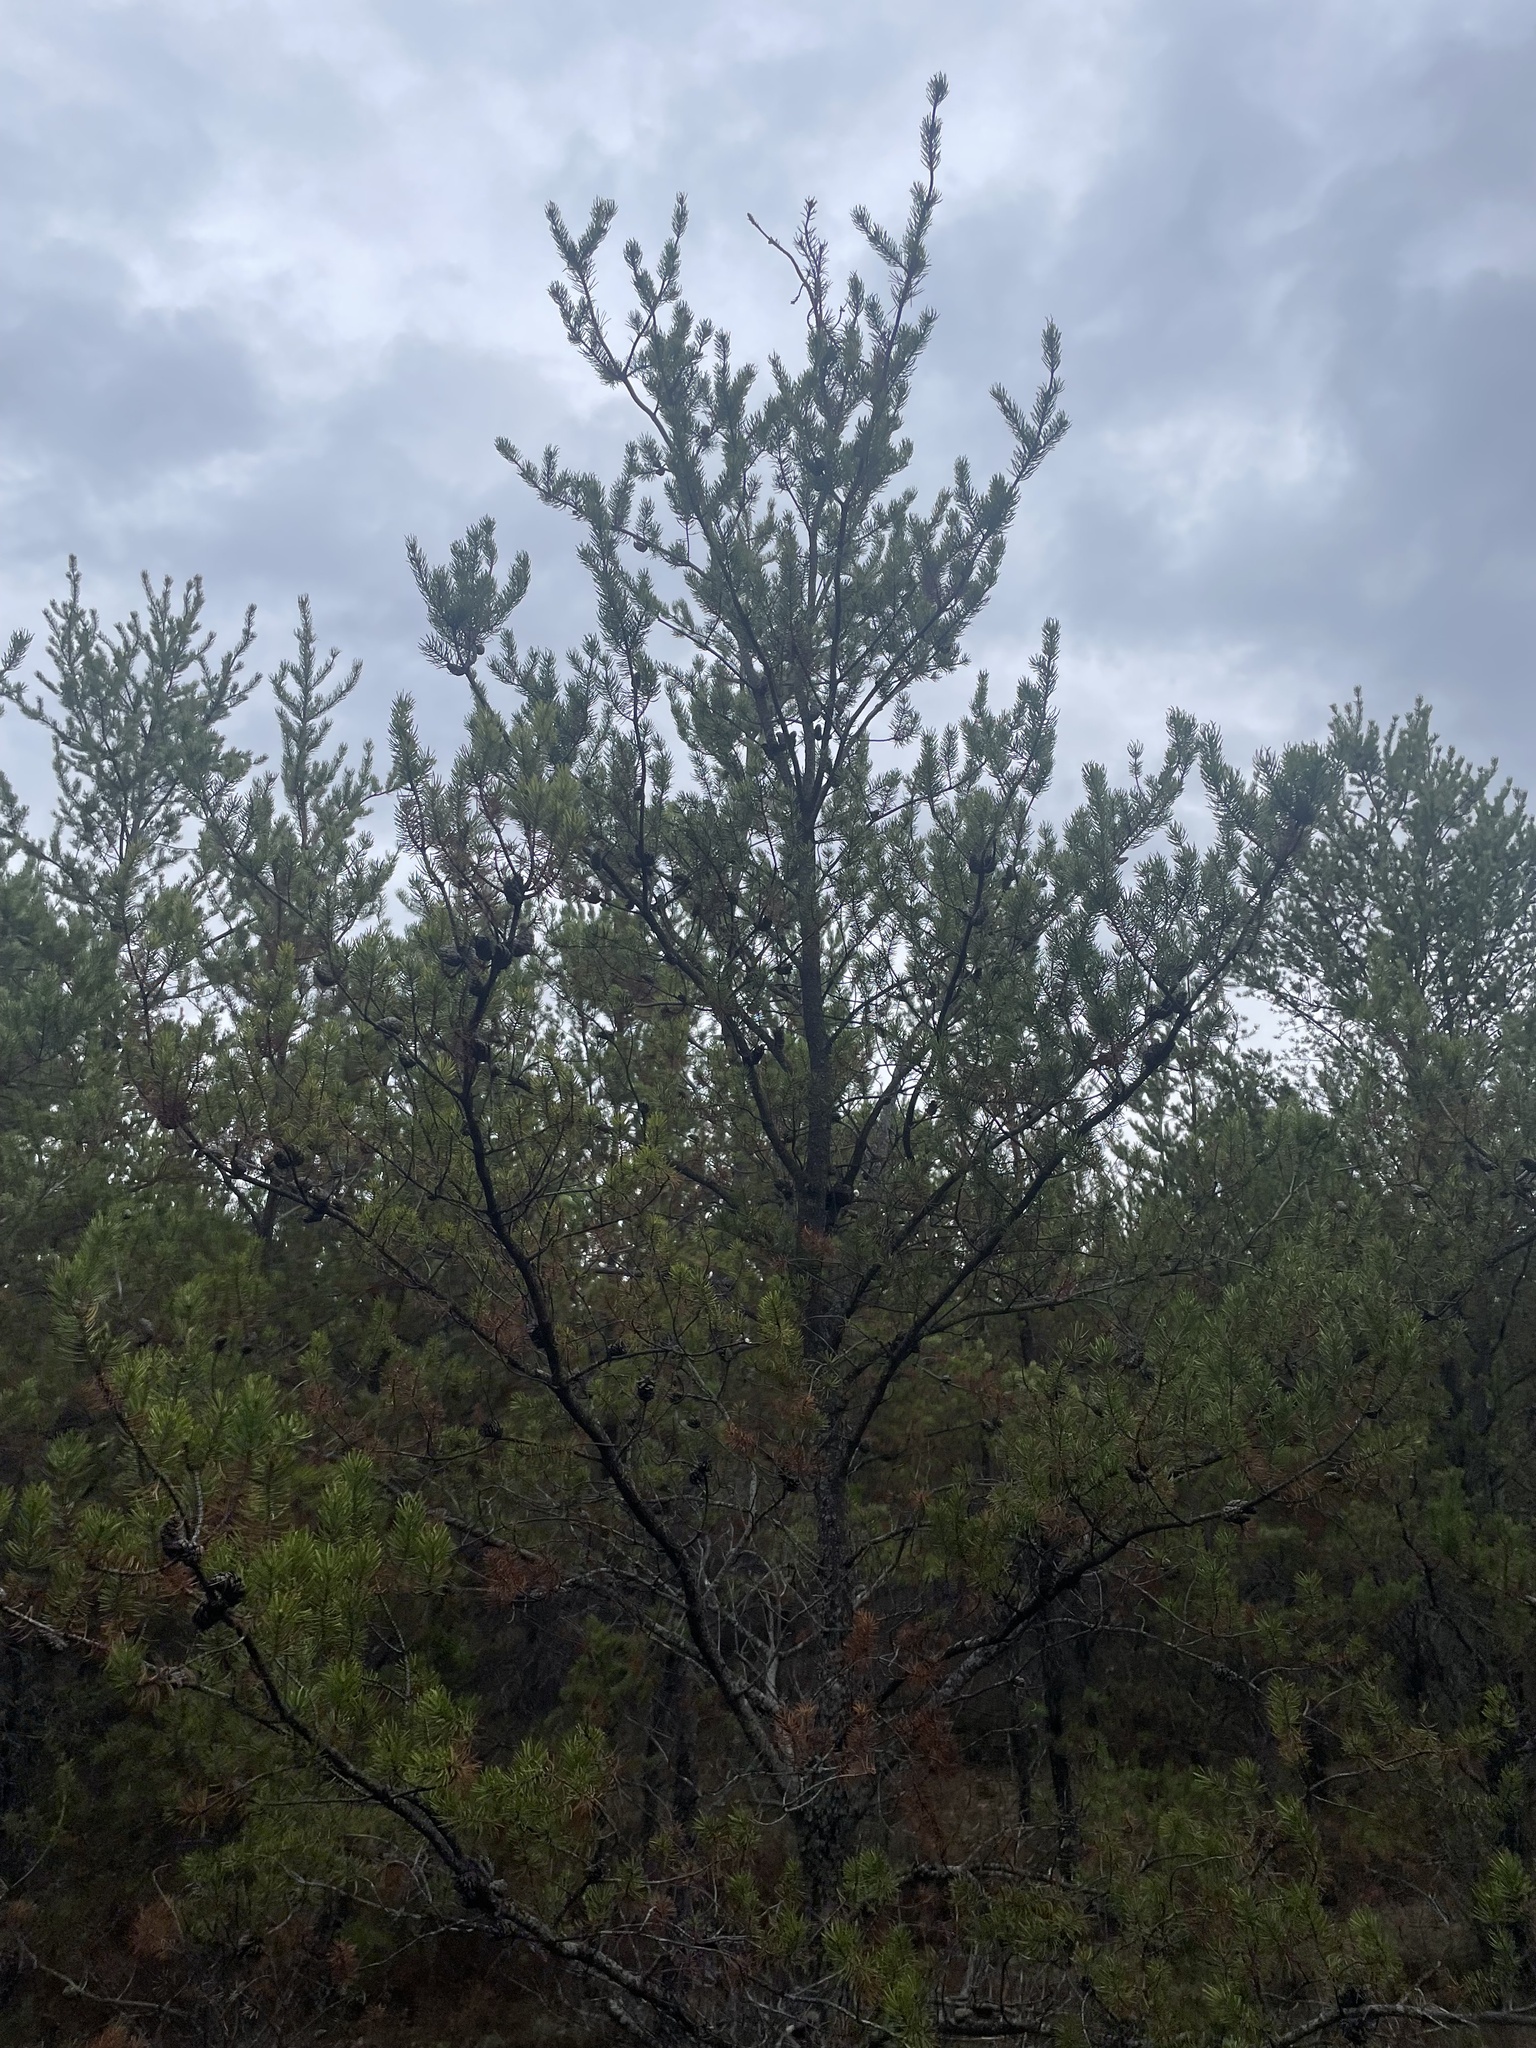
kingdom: Plantae
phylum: Tracheophyta
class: Pinopsida
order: Pinales
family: Pinaceae
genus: Pinus
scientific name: Pinus banksiana
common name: Jack pine
